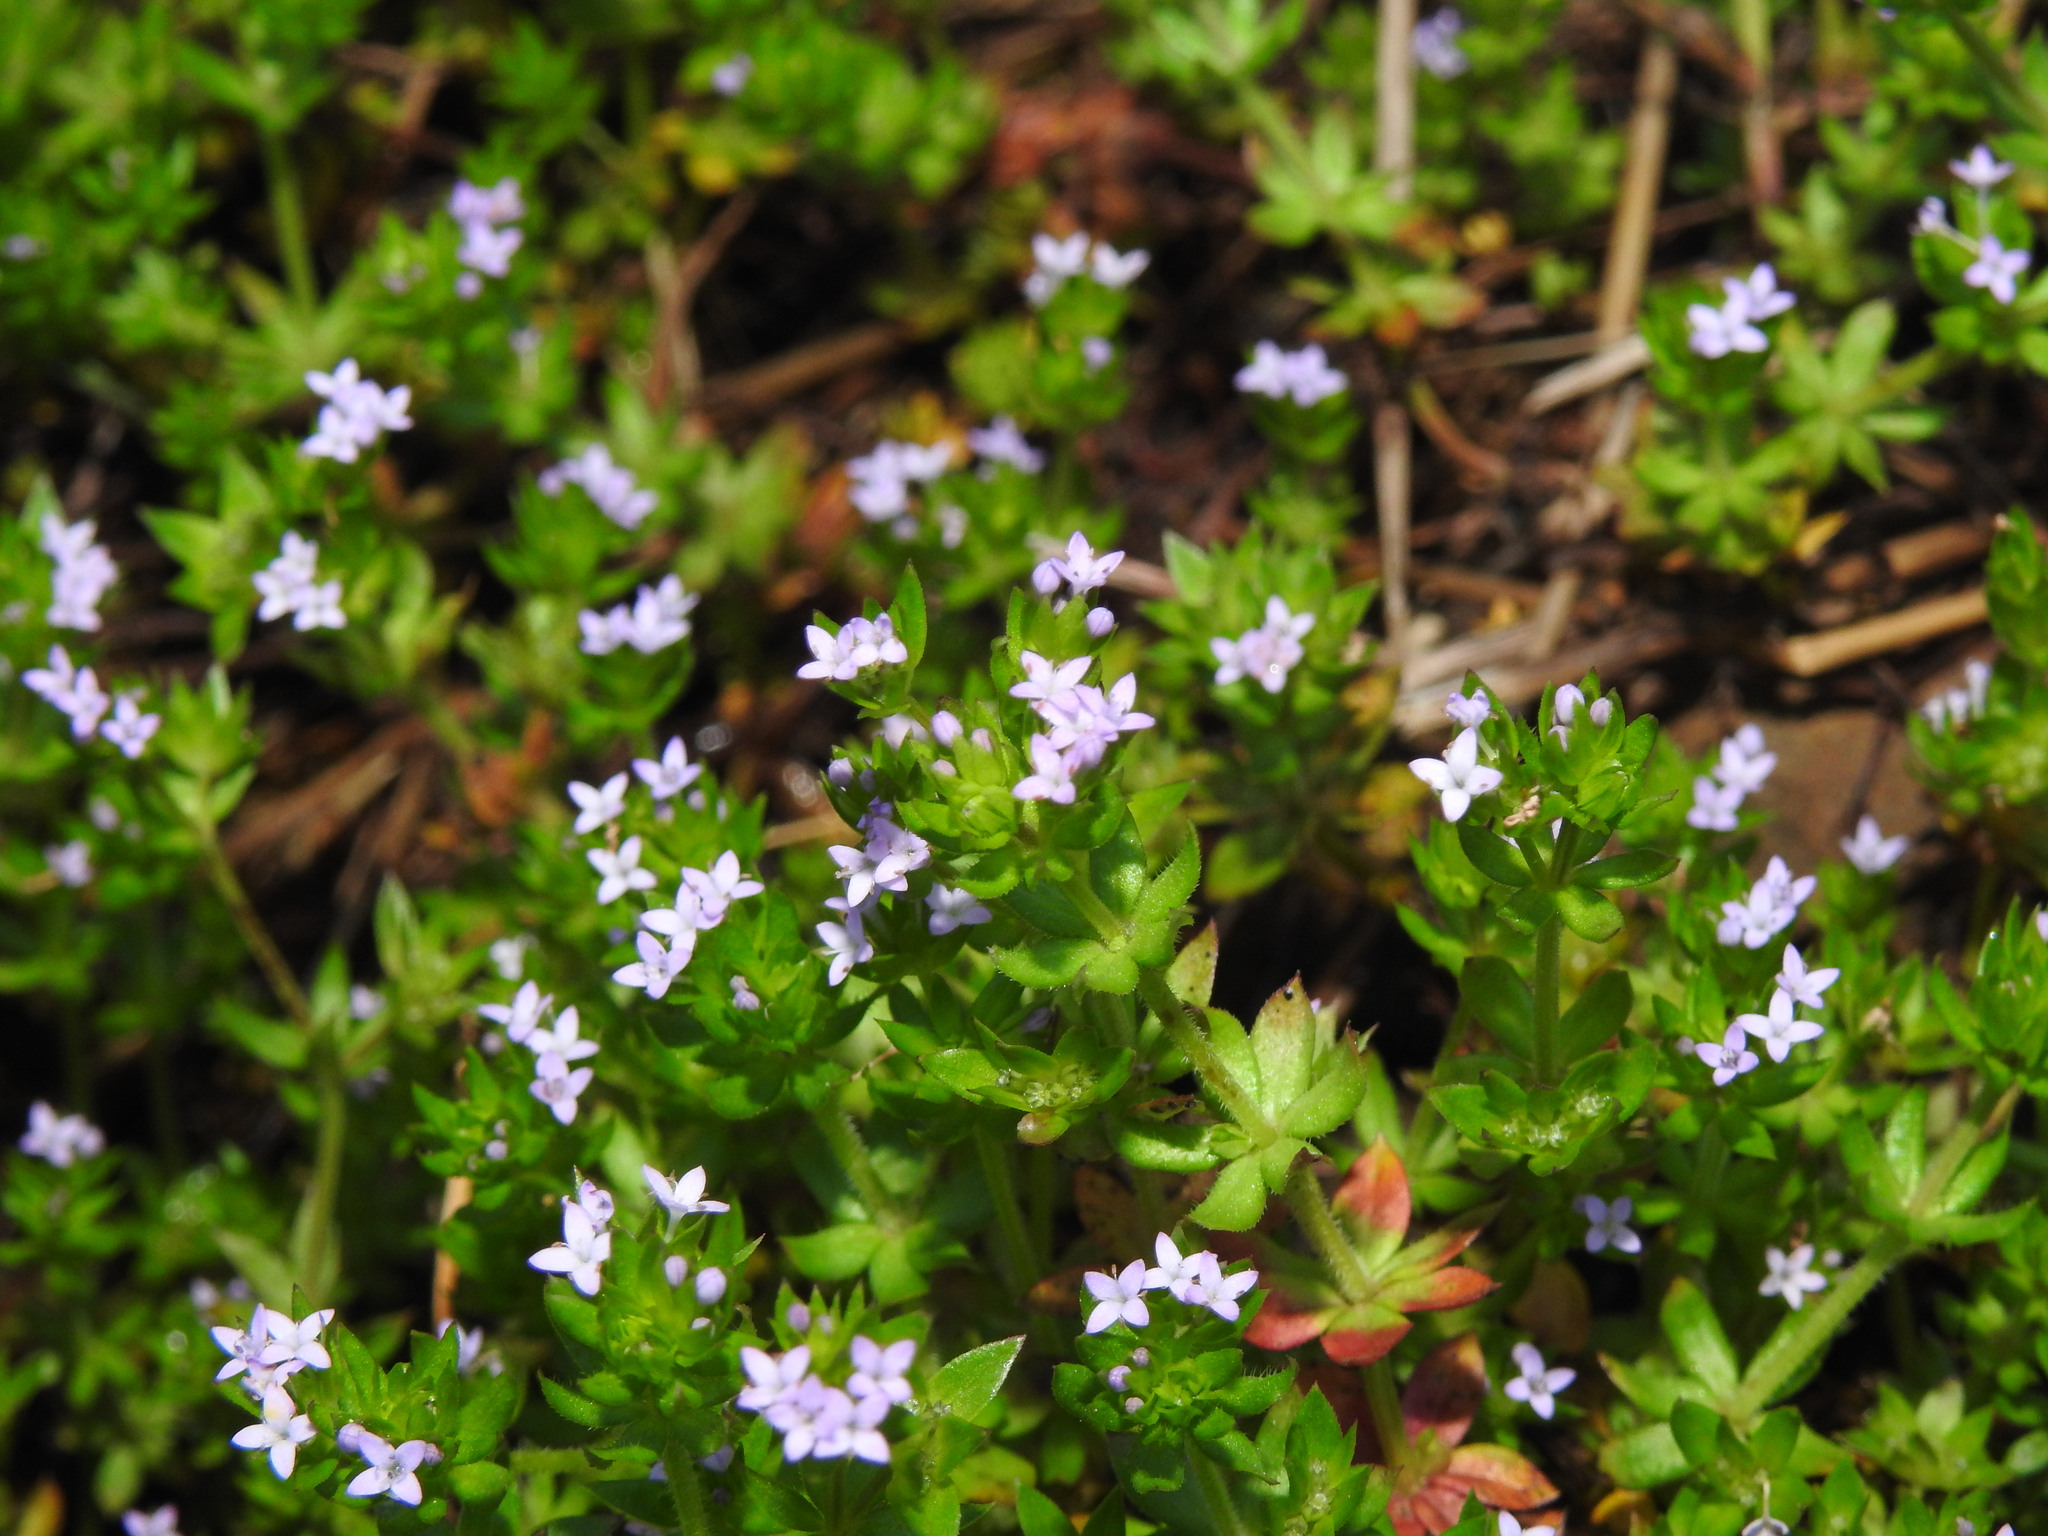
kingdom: Plantae
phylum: Tracheophyta
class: Magnoliopsida
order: Gentianales
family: Rubiaceae
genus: Sherardia
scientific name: Sherardia arvensis
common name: Field madder
